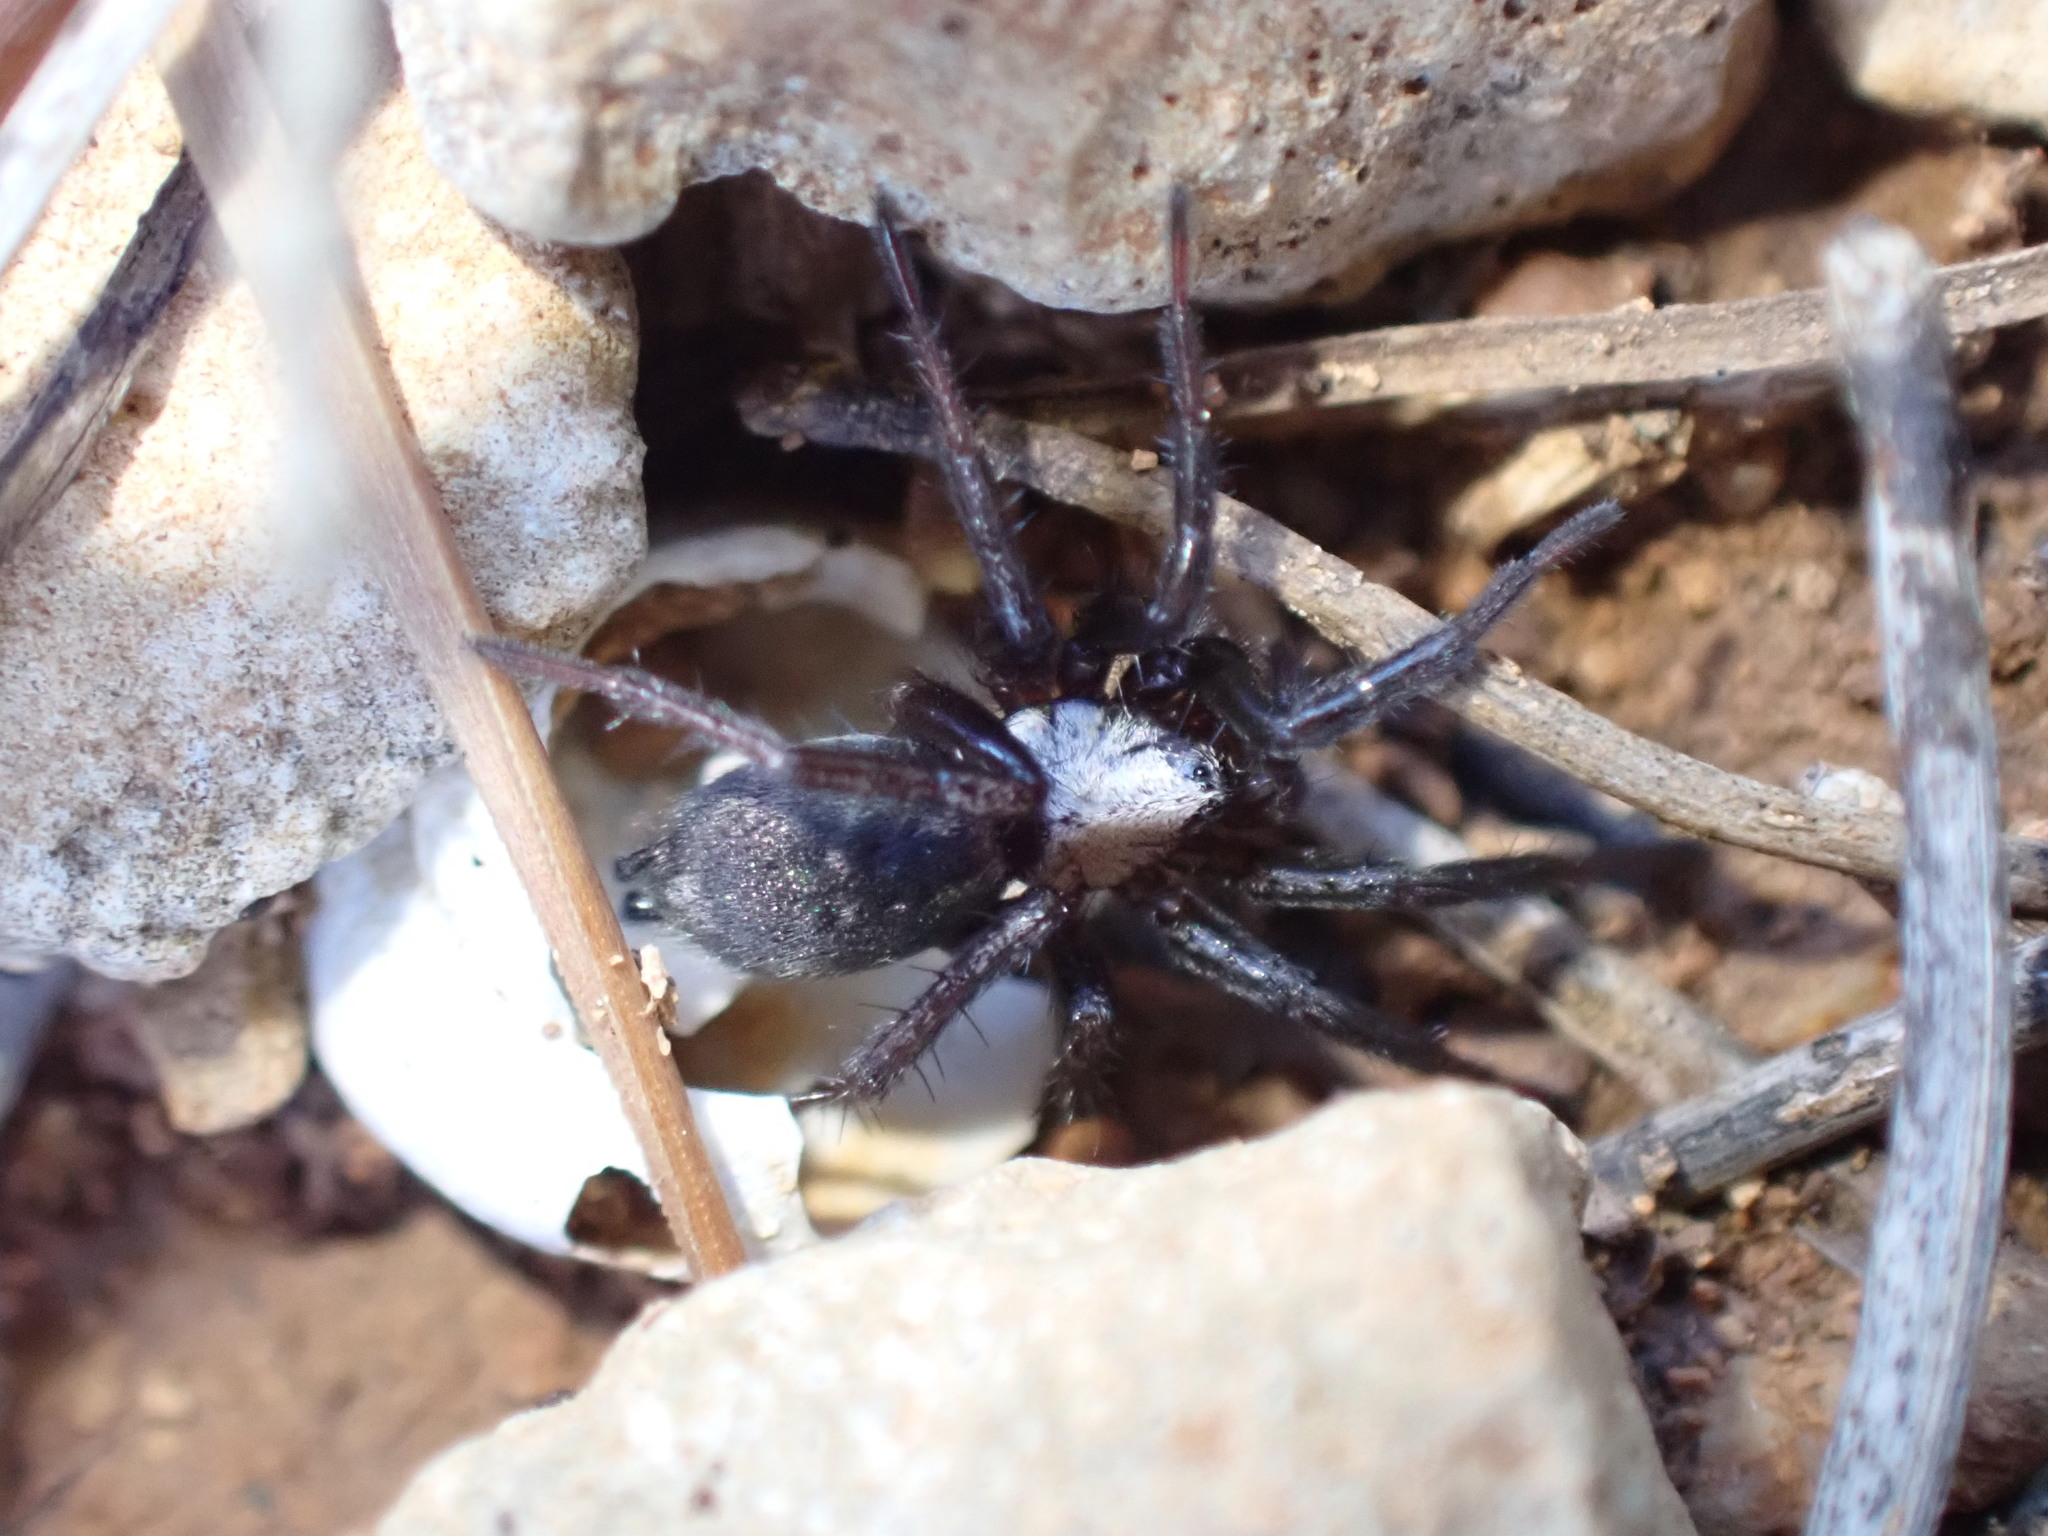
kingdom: Animalia
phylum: Arthropoda
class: Arachnida
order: Araneae
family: Gnaphosidae
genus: Callilepis
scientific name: Callilepis concolor
